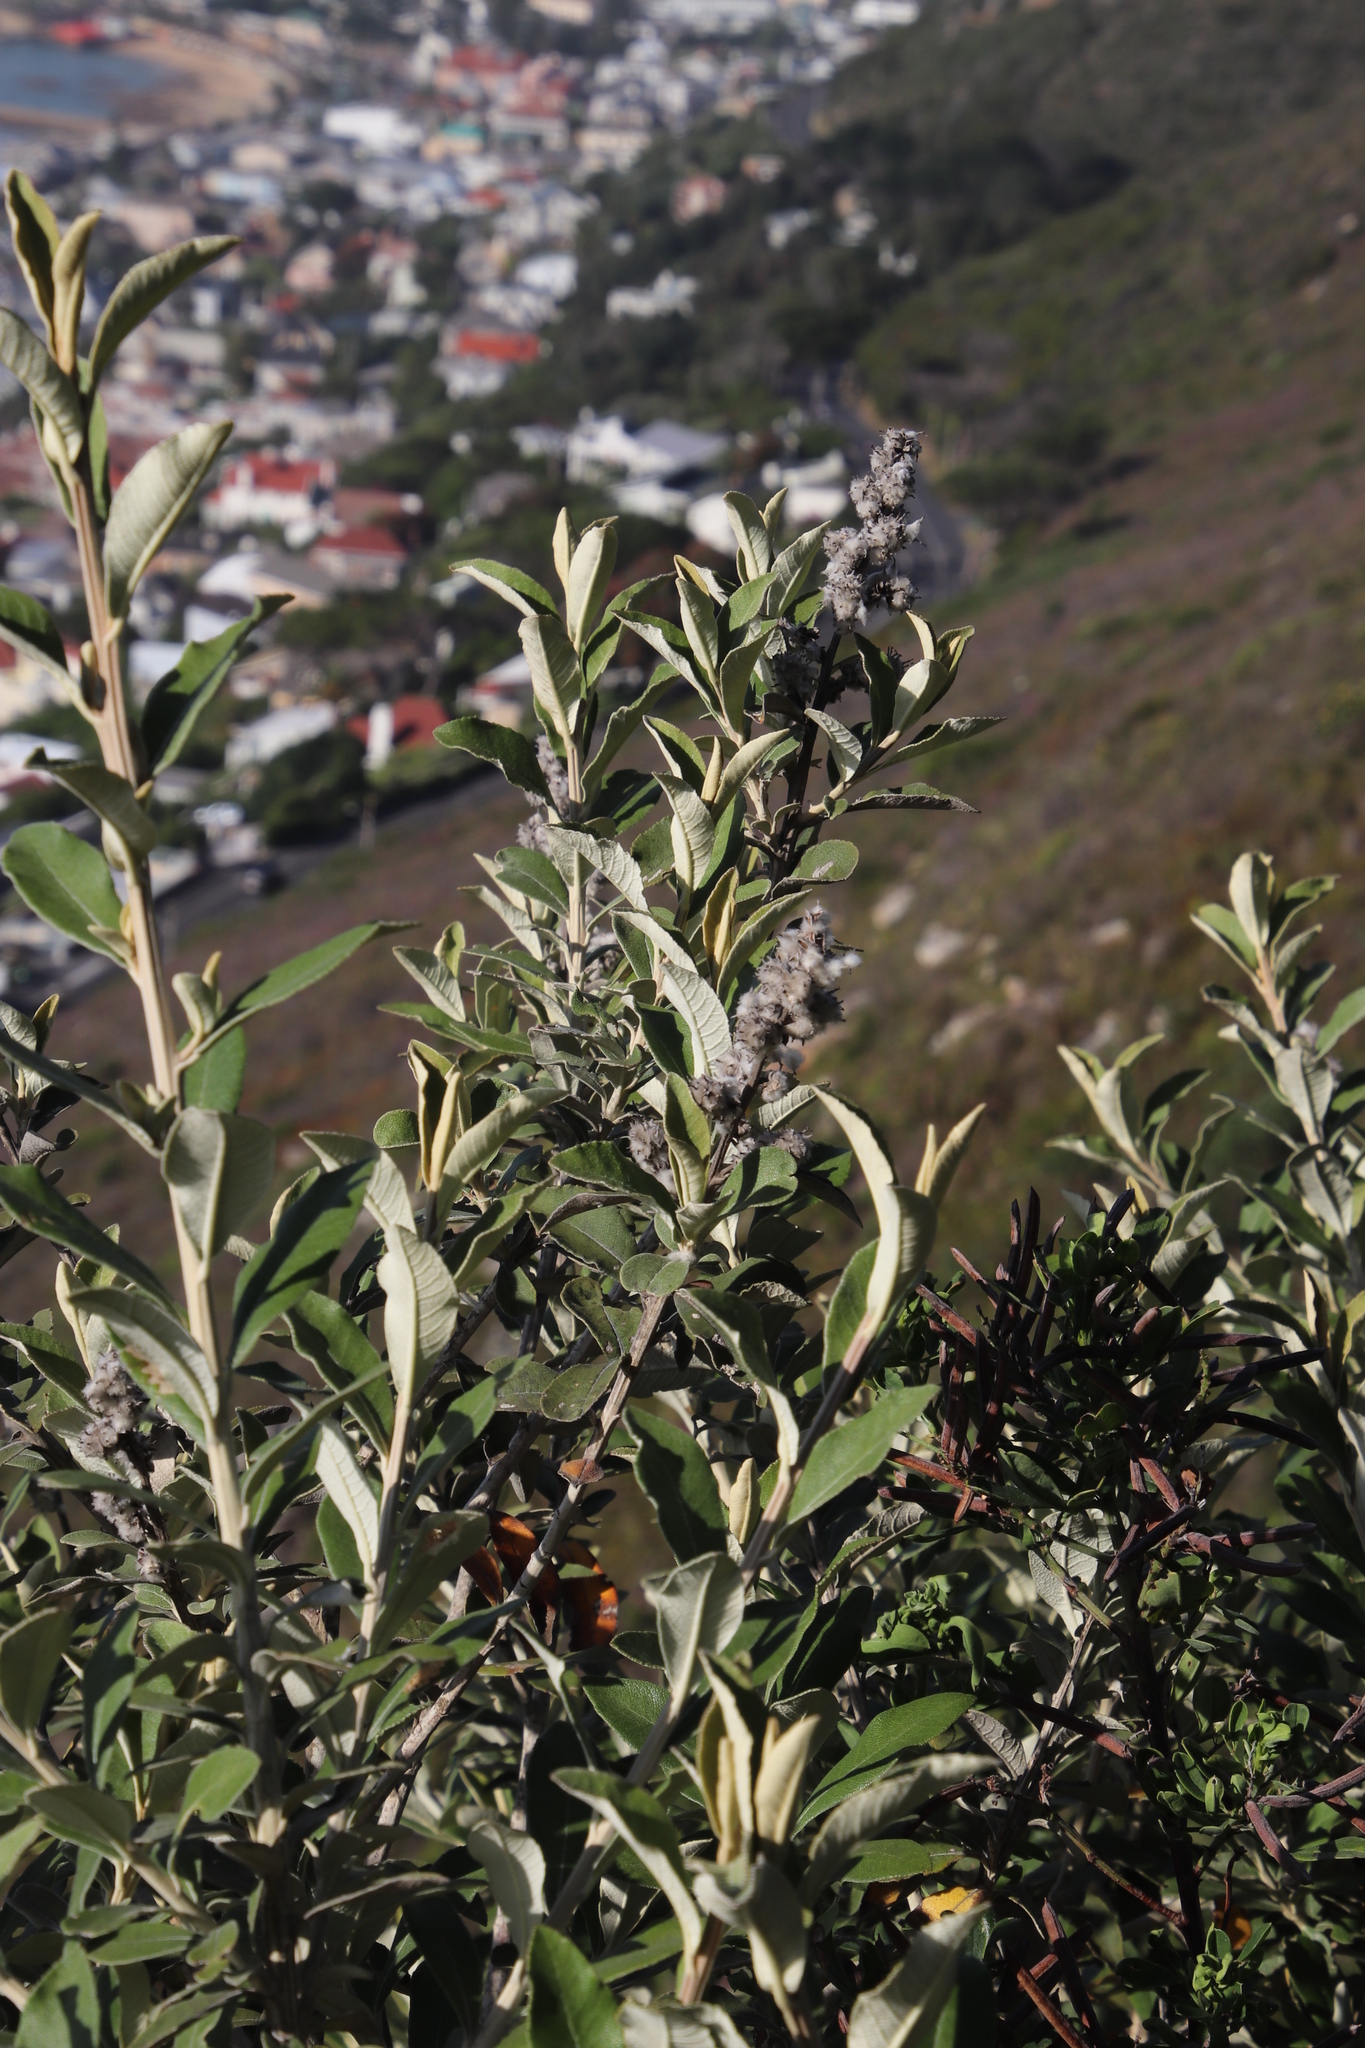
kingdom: Plantae
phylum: Tracheophyta
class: Magnoliopsida
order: Asterales
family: Asteraceae
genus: Tarchonanthus
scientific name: Tarchonanthus littoralis
